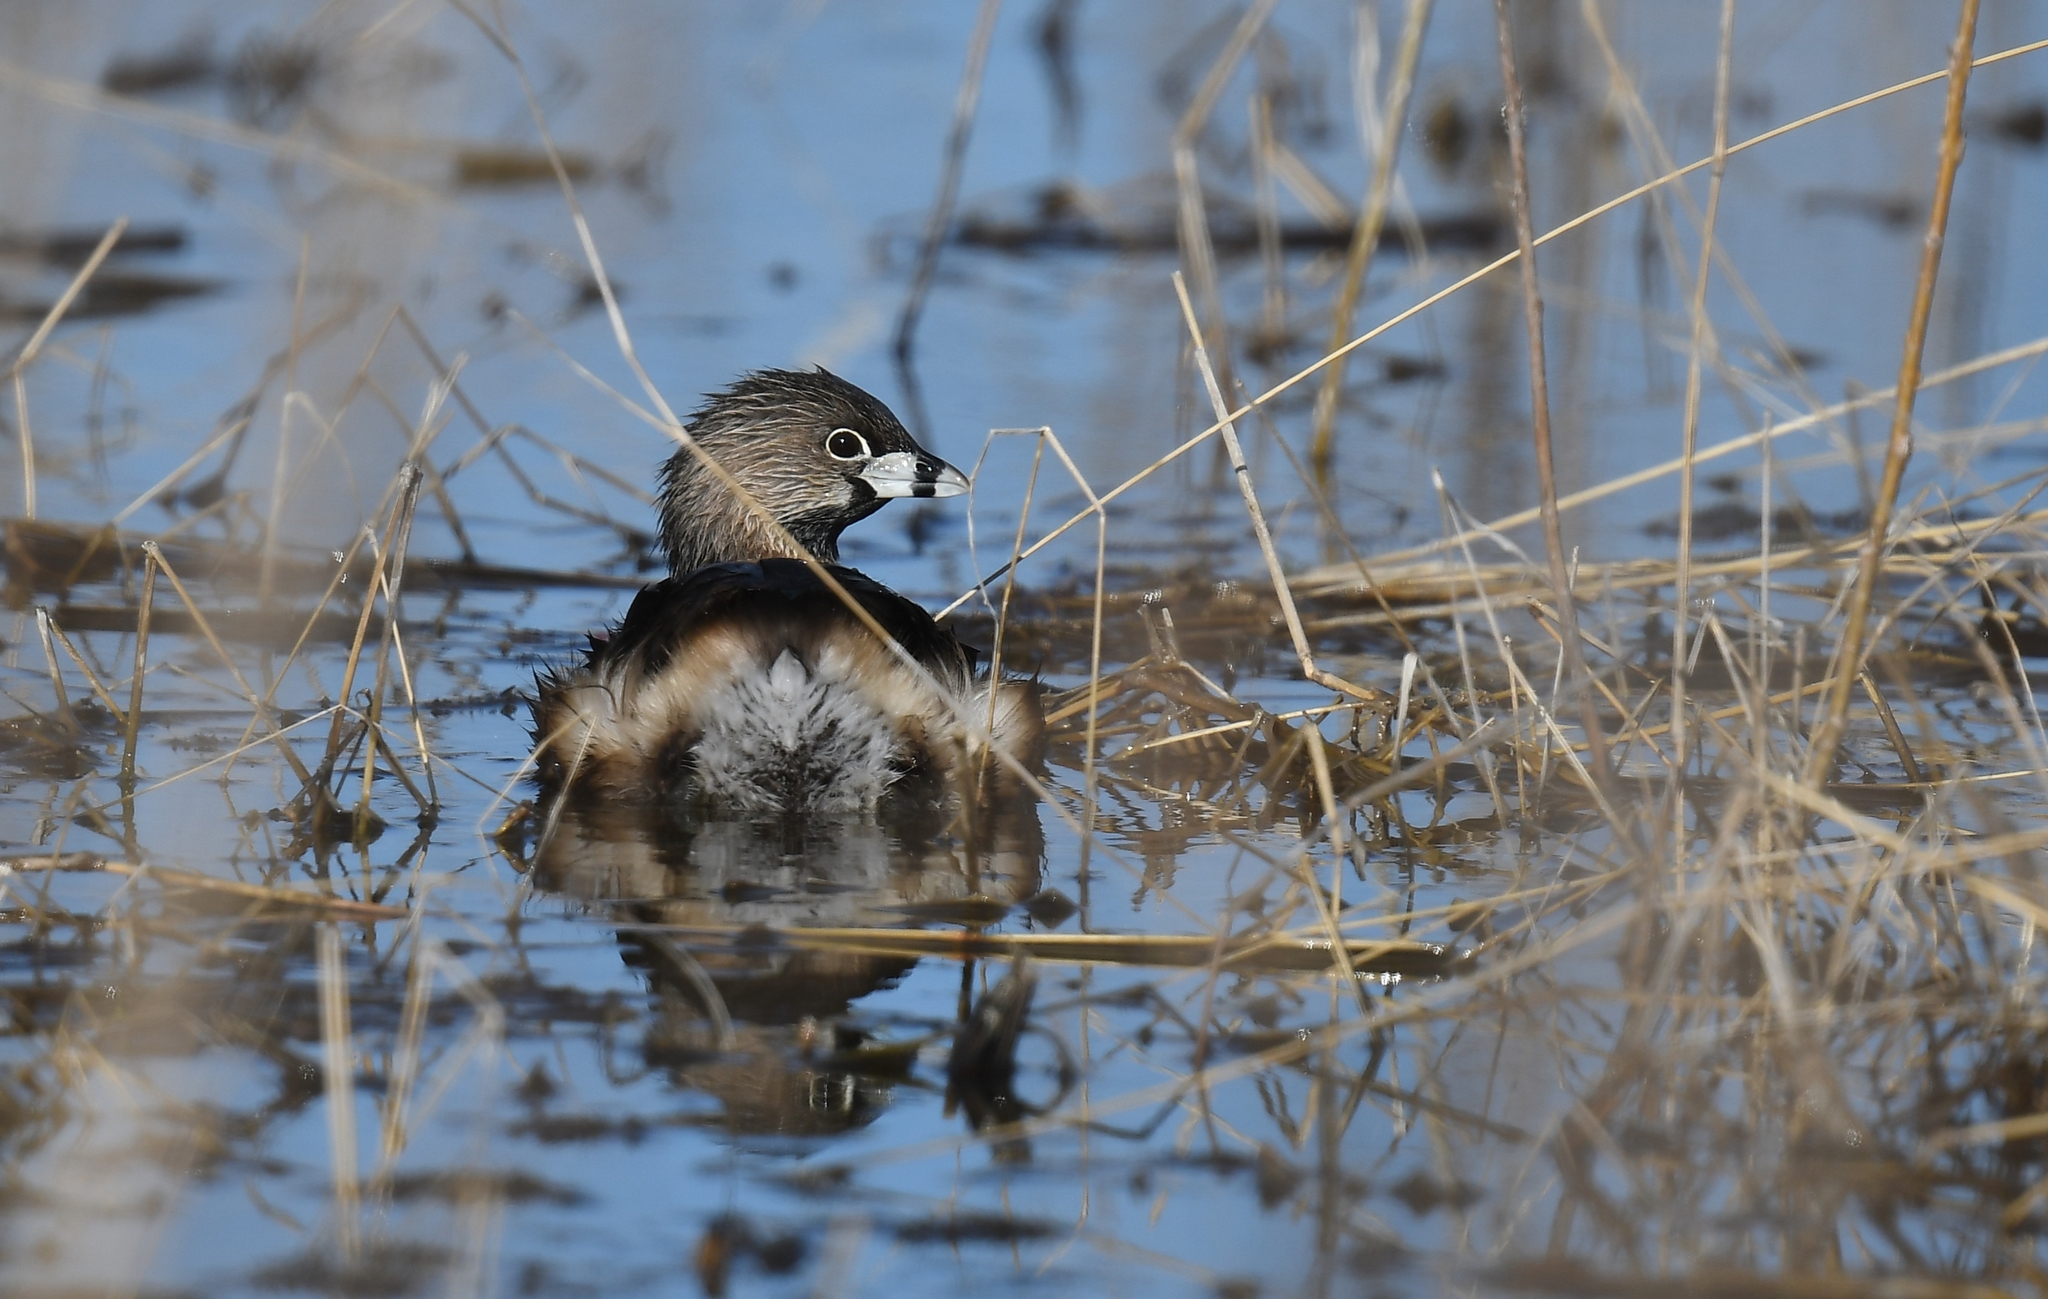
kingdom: Animalia
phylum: Chordata
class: Aves
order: Podicipediformes
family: Podicipedidae
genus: Podilymbus
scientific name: Podilymbus podiceps
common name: Pied-billed grebe
